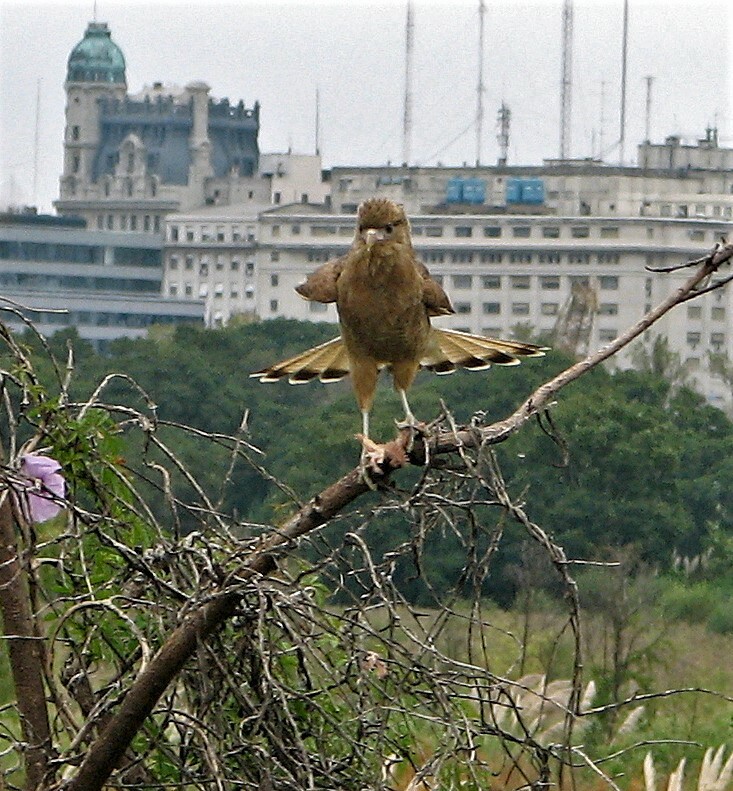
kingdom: Animalia
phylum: Chordata
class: Aves
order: Falconiformes
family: Falconidae
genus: Daptrius
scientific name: Daptrius
